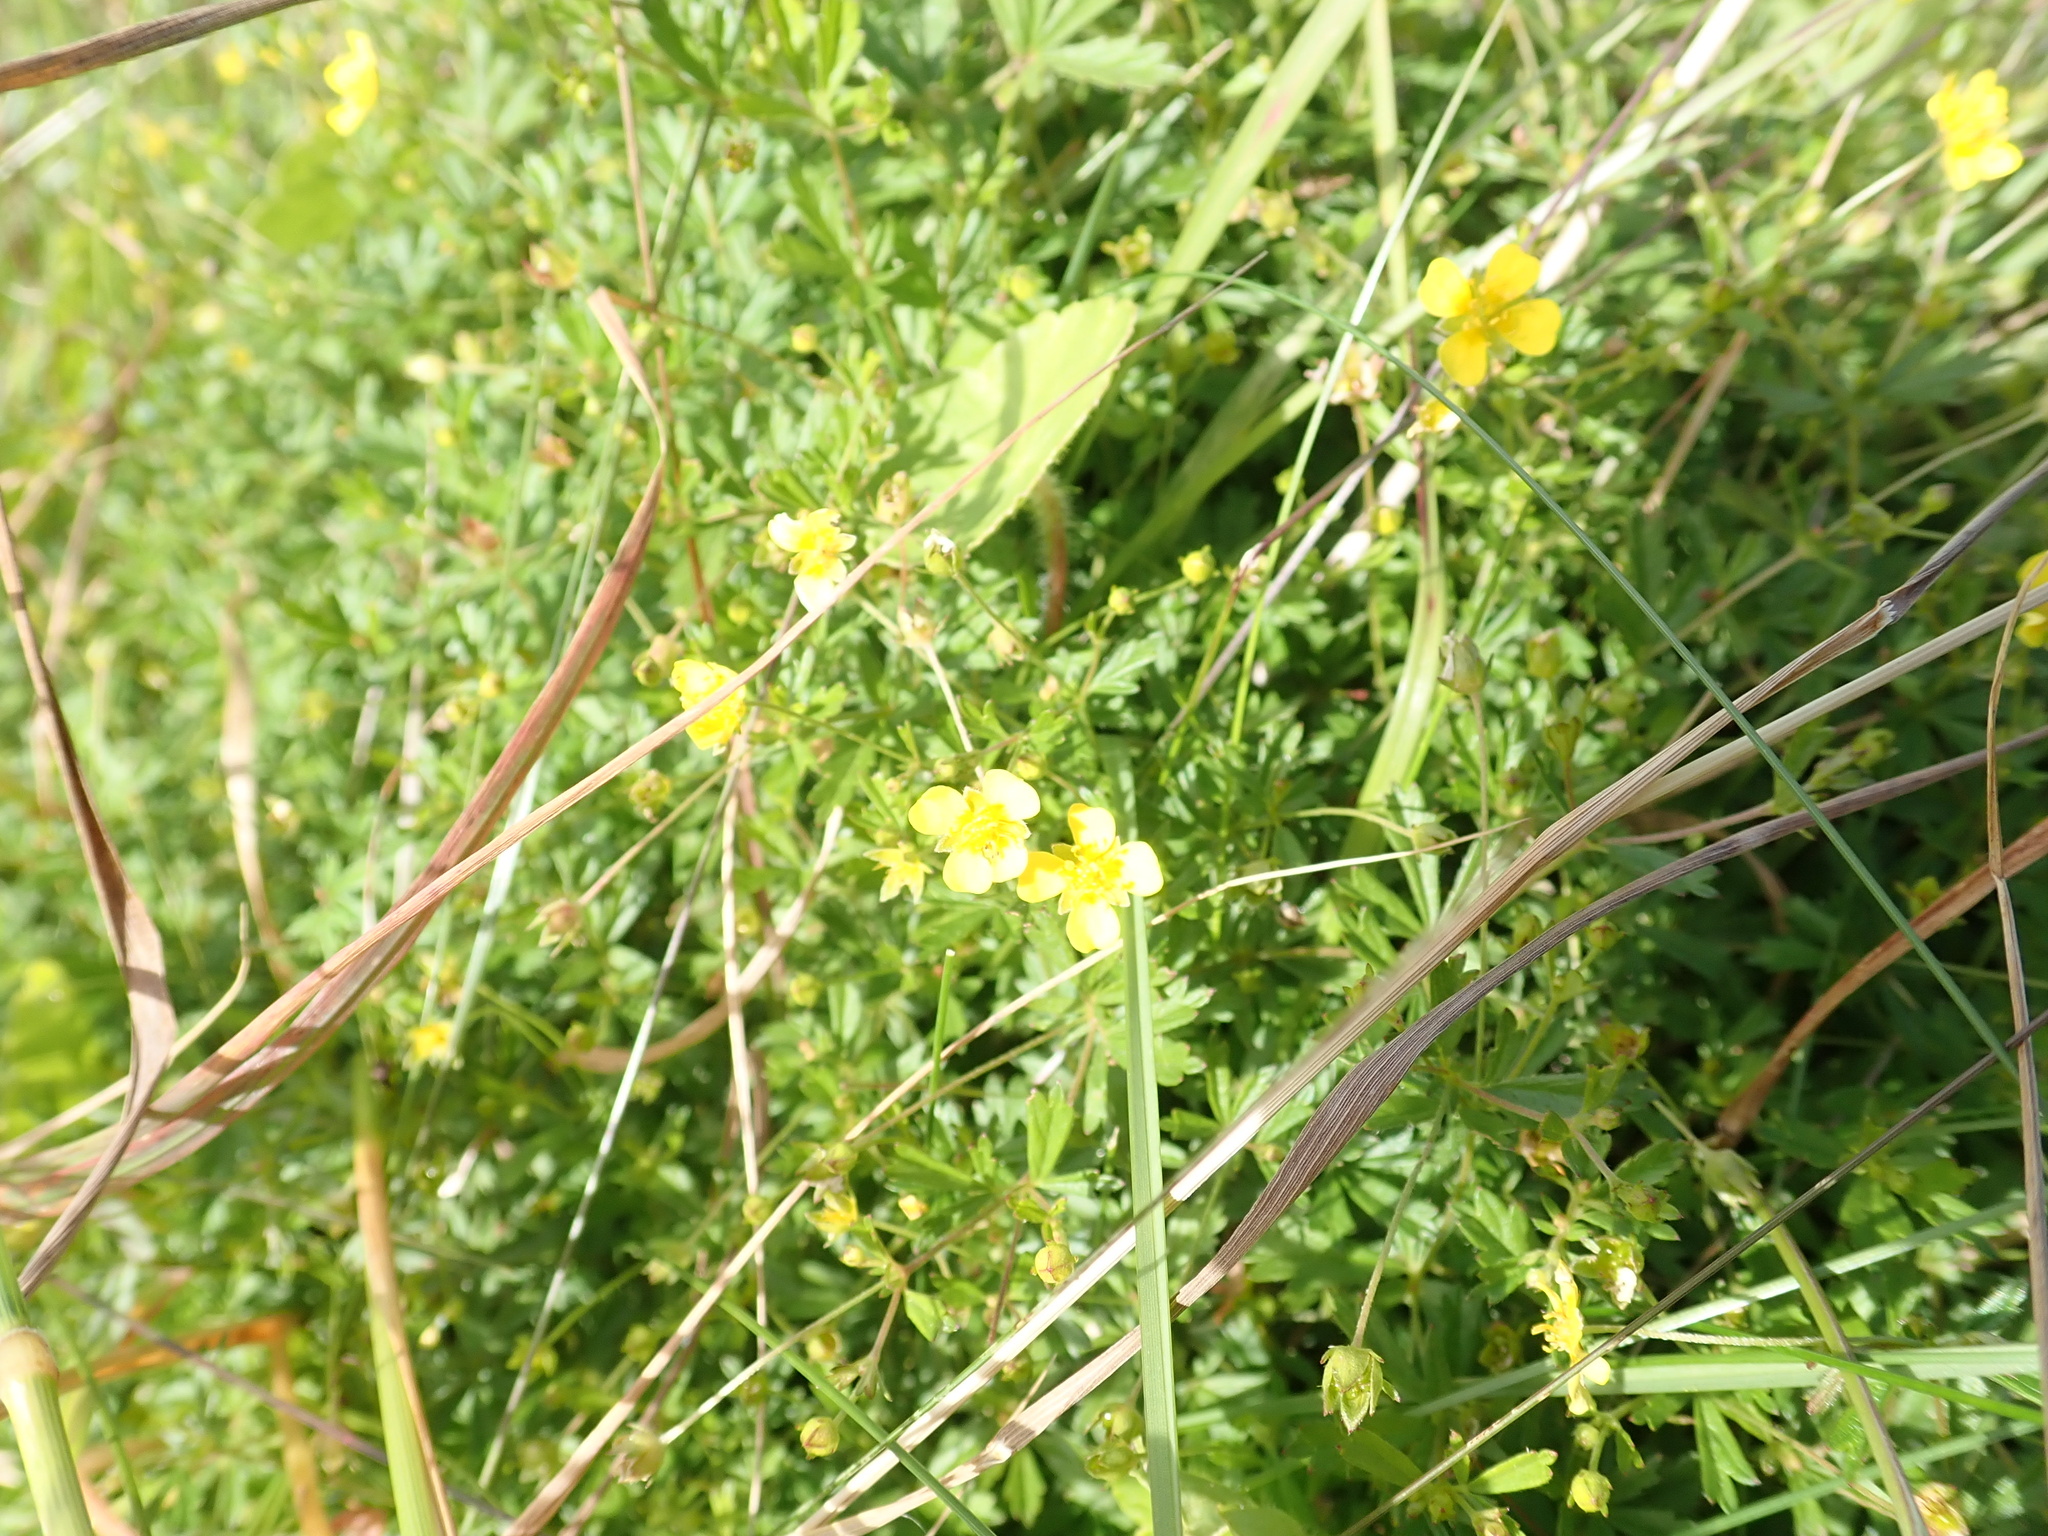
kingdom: Plantae
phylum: Tracheophyta
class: Magnoliopsida
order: Rosales
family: Rosaceae
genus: Potentilla
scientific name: Potentilla erecta
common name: Tormentil
